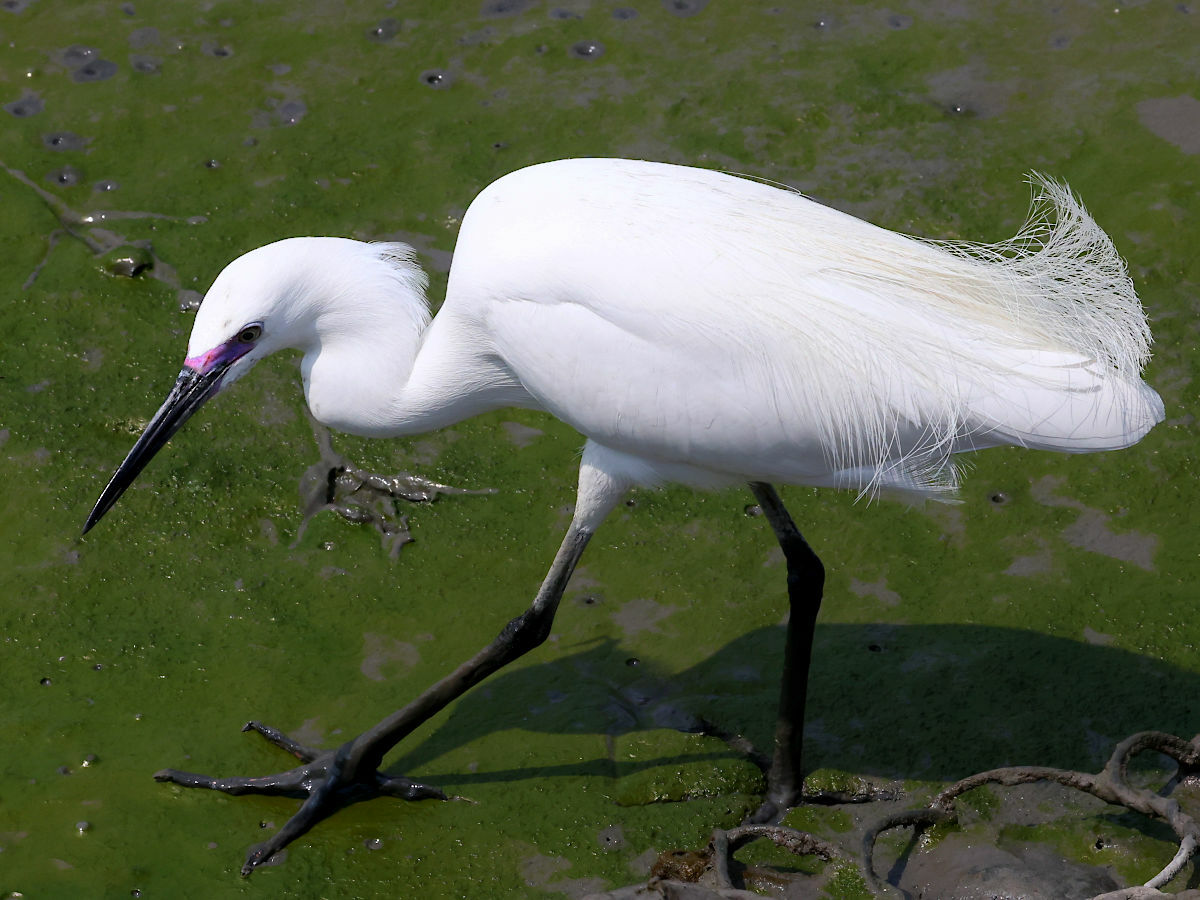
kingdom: Animalia
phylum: Chordata
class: Aves
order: Pelecaniformes
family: Ardeidae
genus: Egretta
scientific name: Egretta garzetta
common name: Little egret
